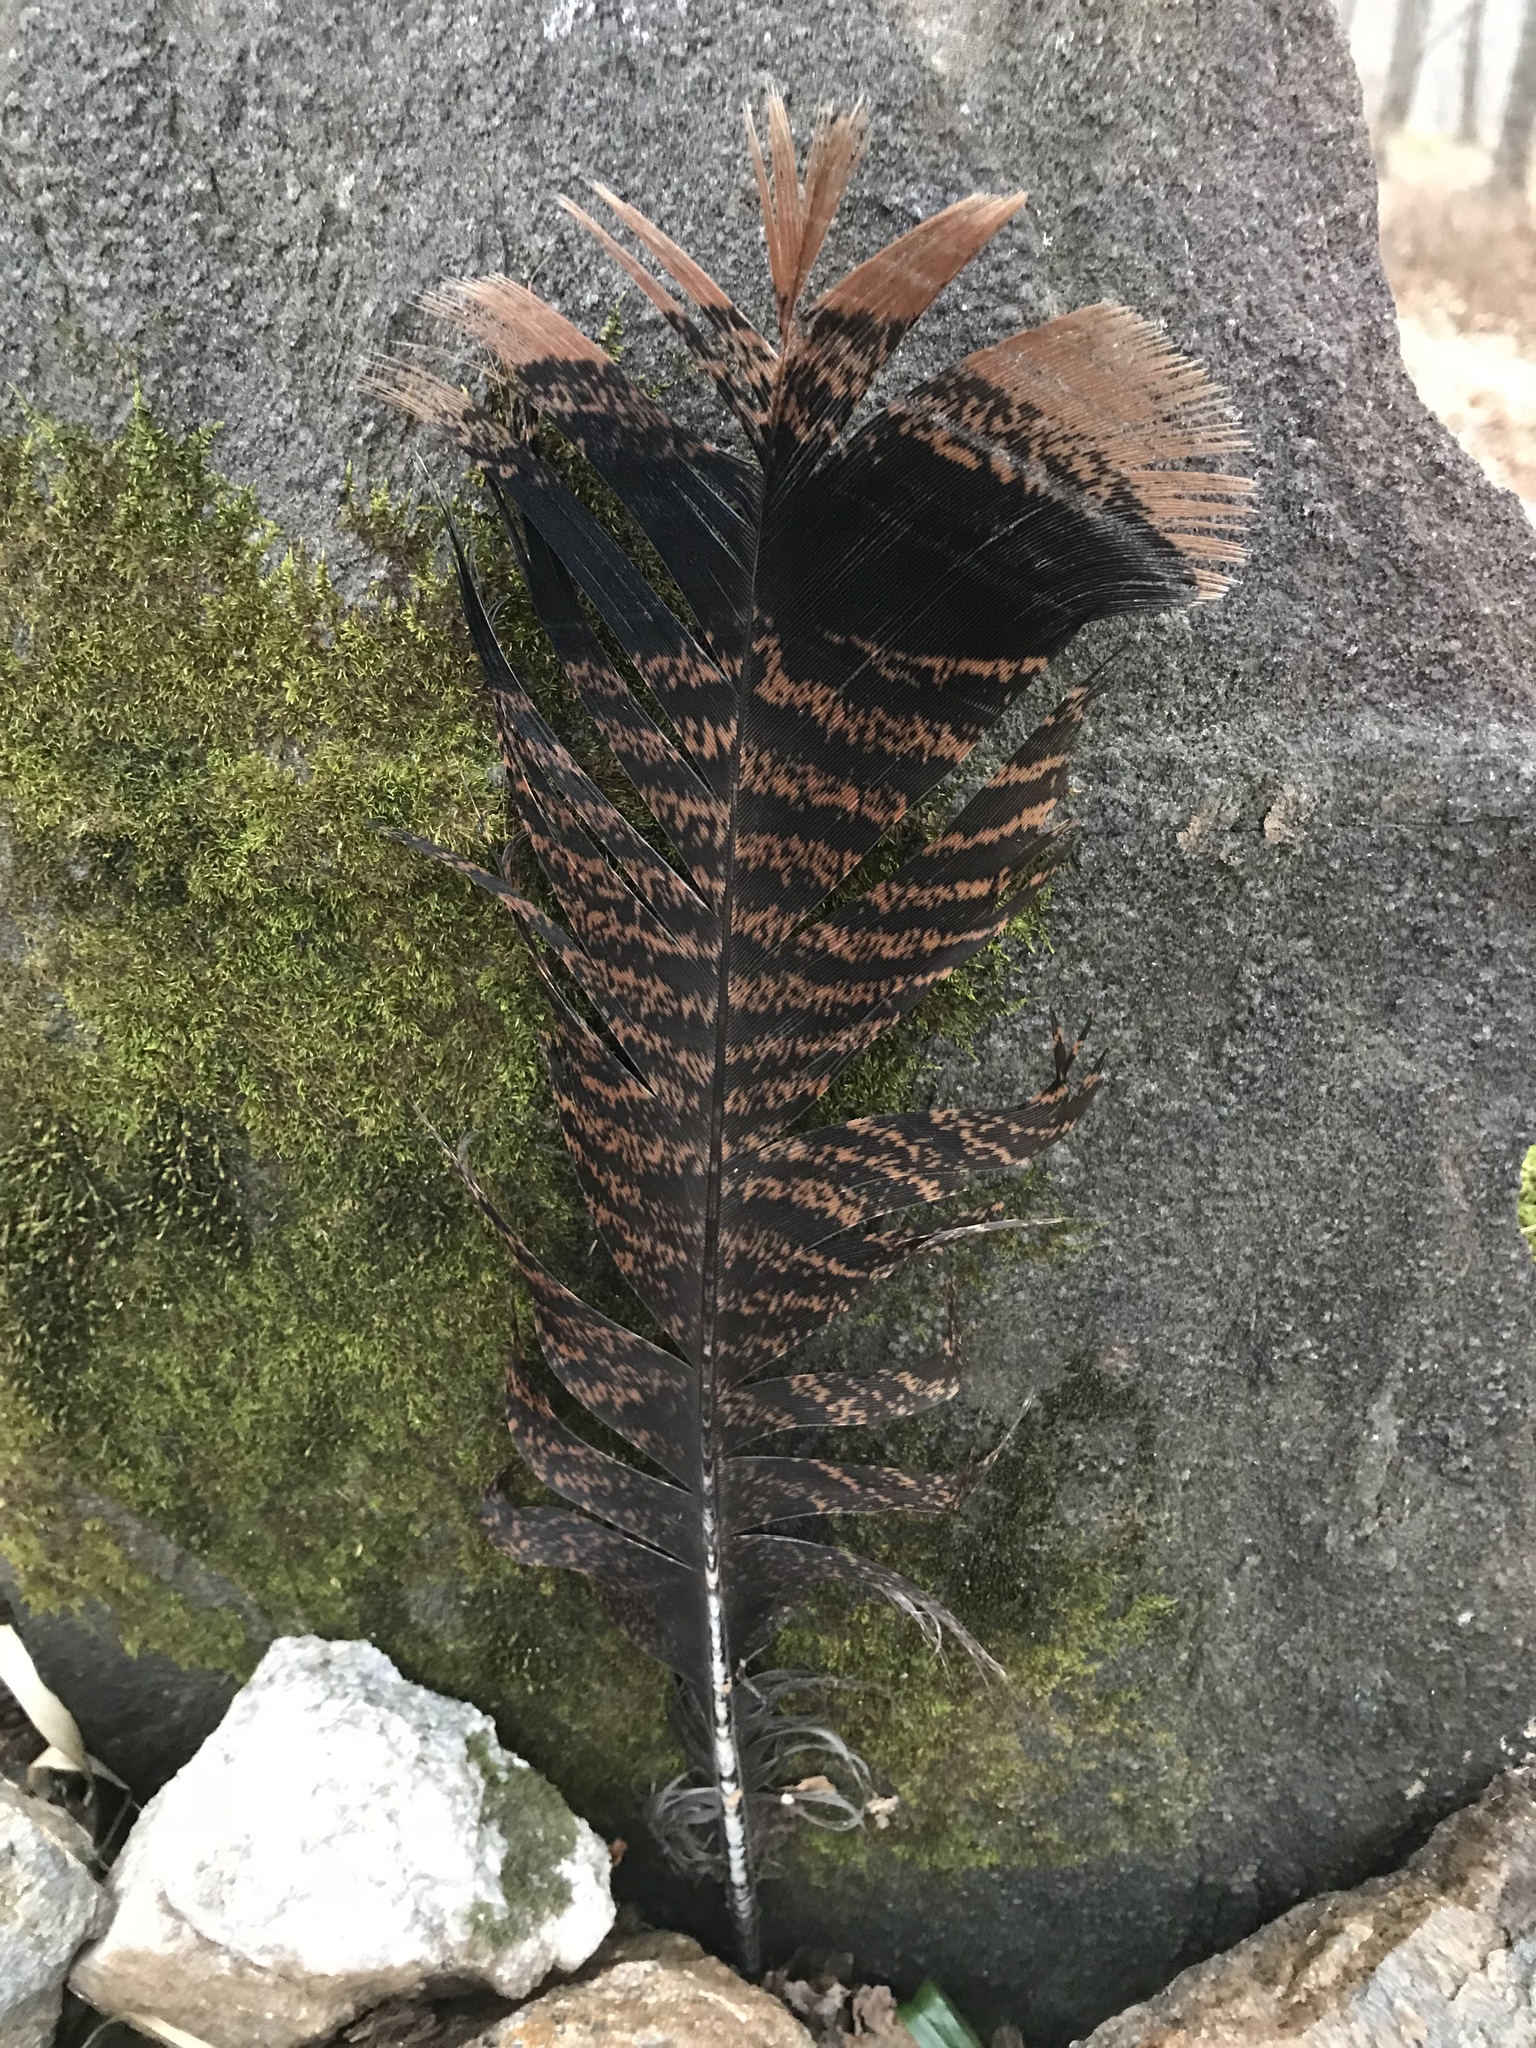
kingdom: Animalia
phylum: Chordata
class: Aves
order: Galliformes
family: Phasianidae
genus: Meleagris
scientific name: Meleagris gallopavo
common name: Wild turkey
